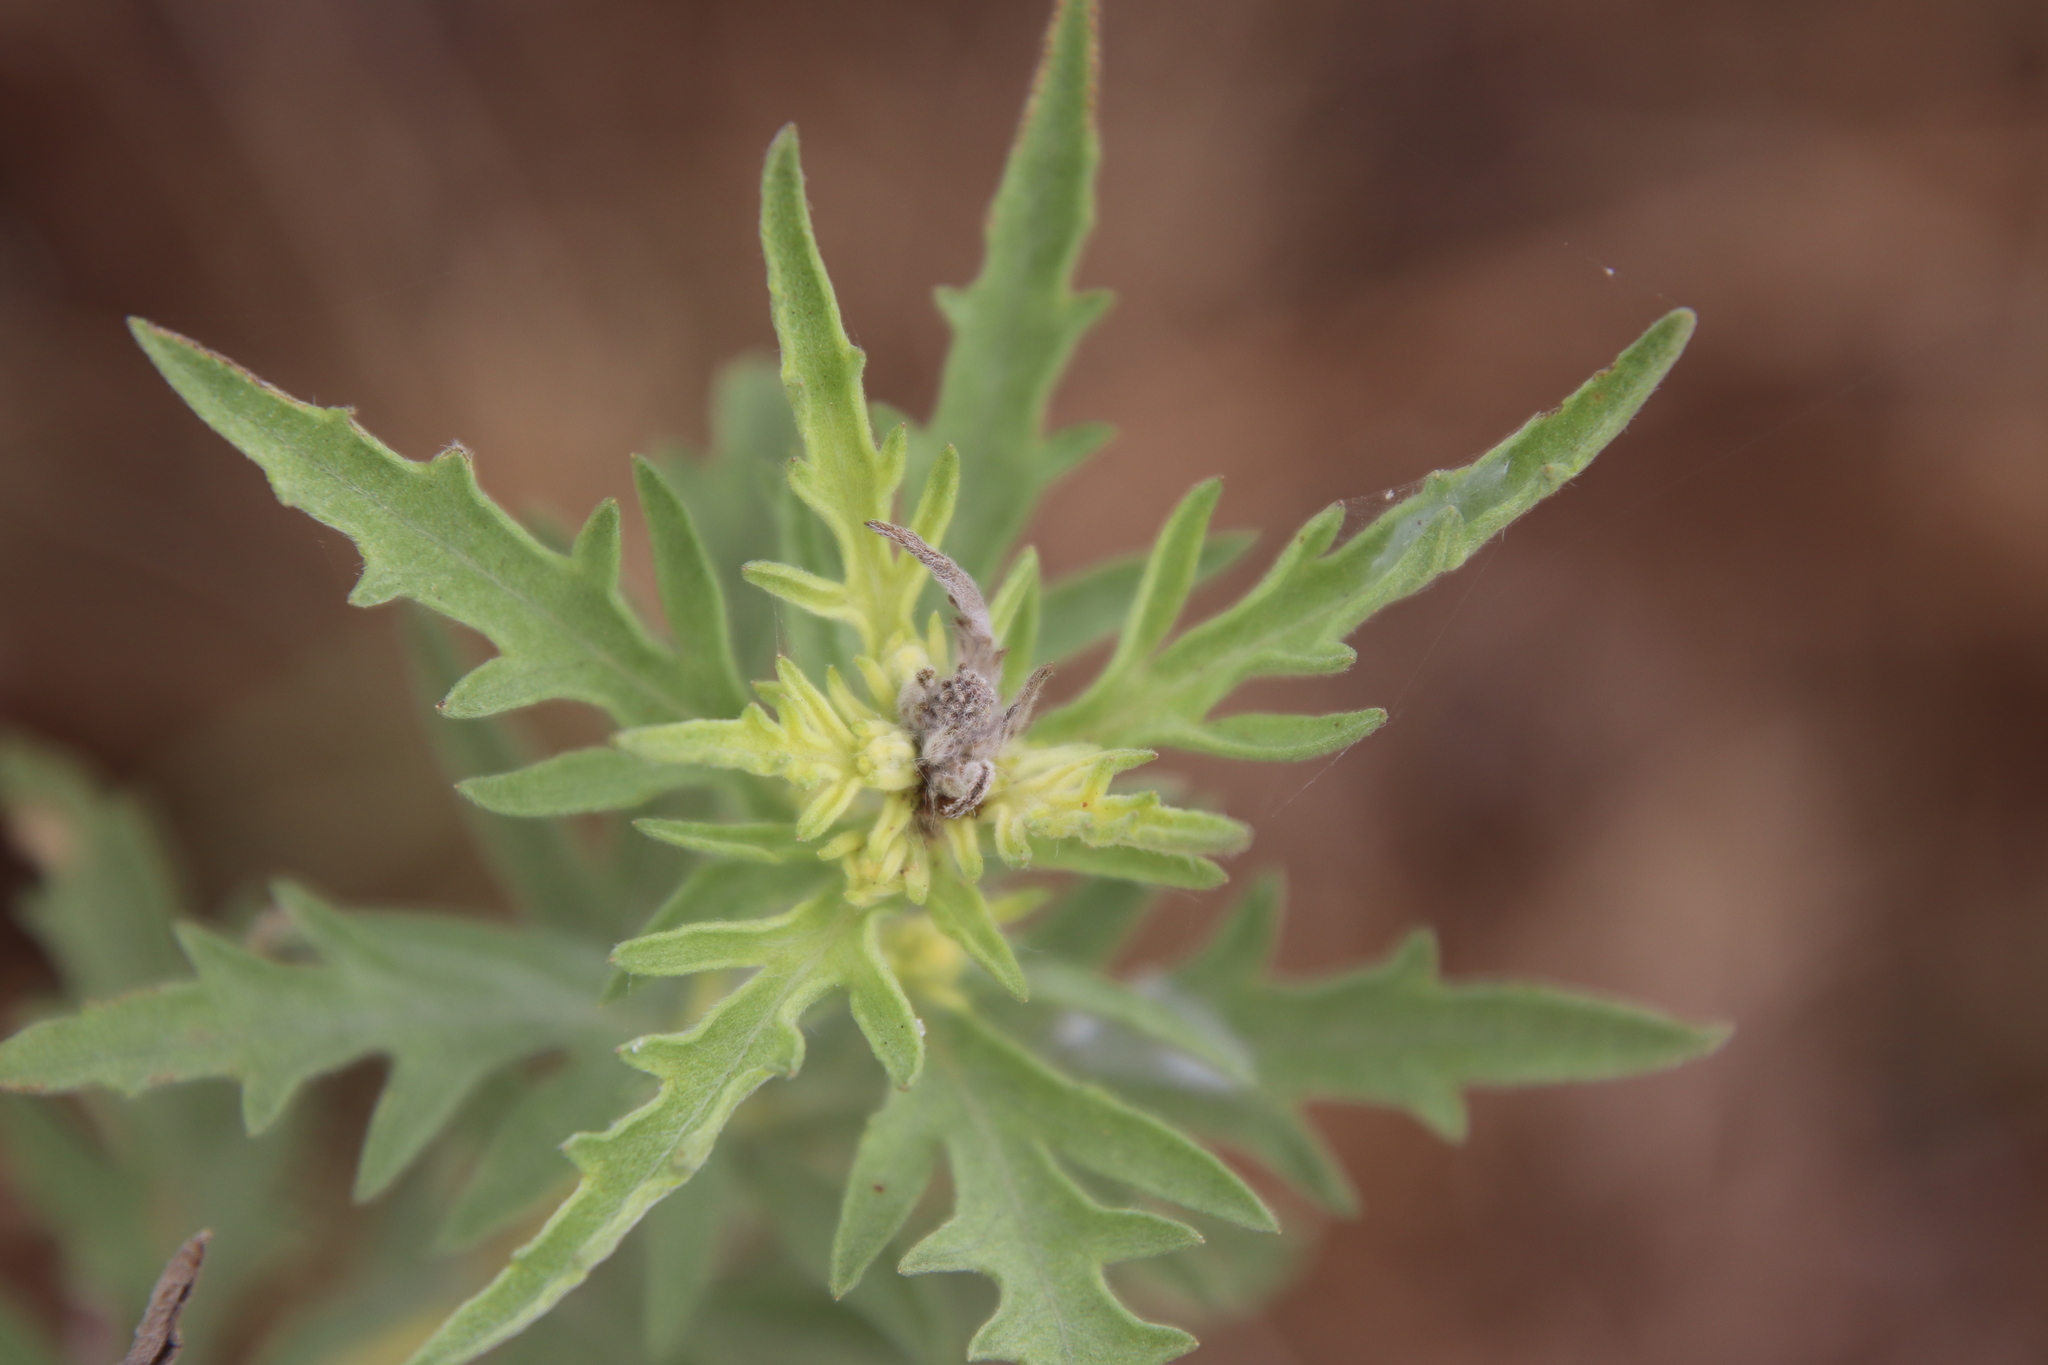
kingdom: Plantae
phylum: Tracheophyta
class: Magnoliopsida
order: Asterales
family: Asteraceae
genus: Ambrosia
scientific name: Ambrosia psilostachya
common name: Perennial ragweed
